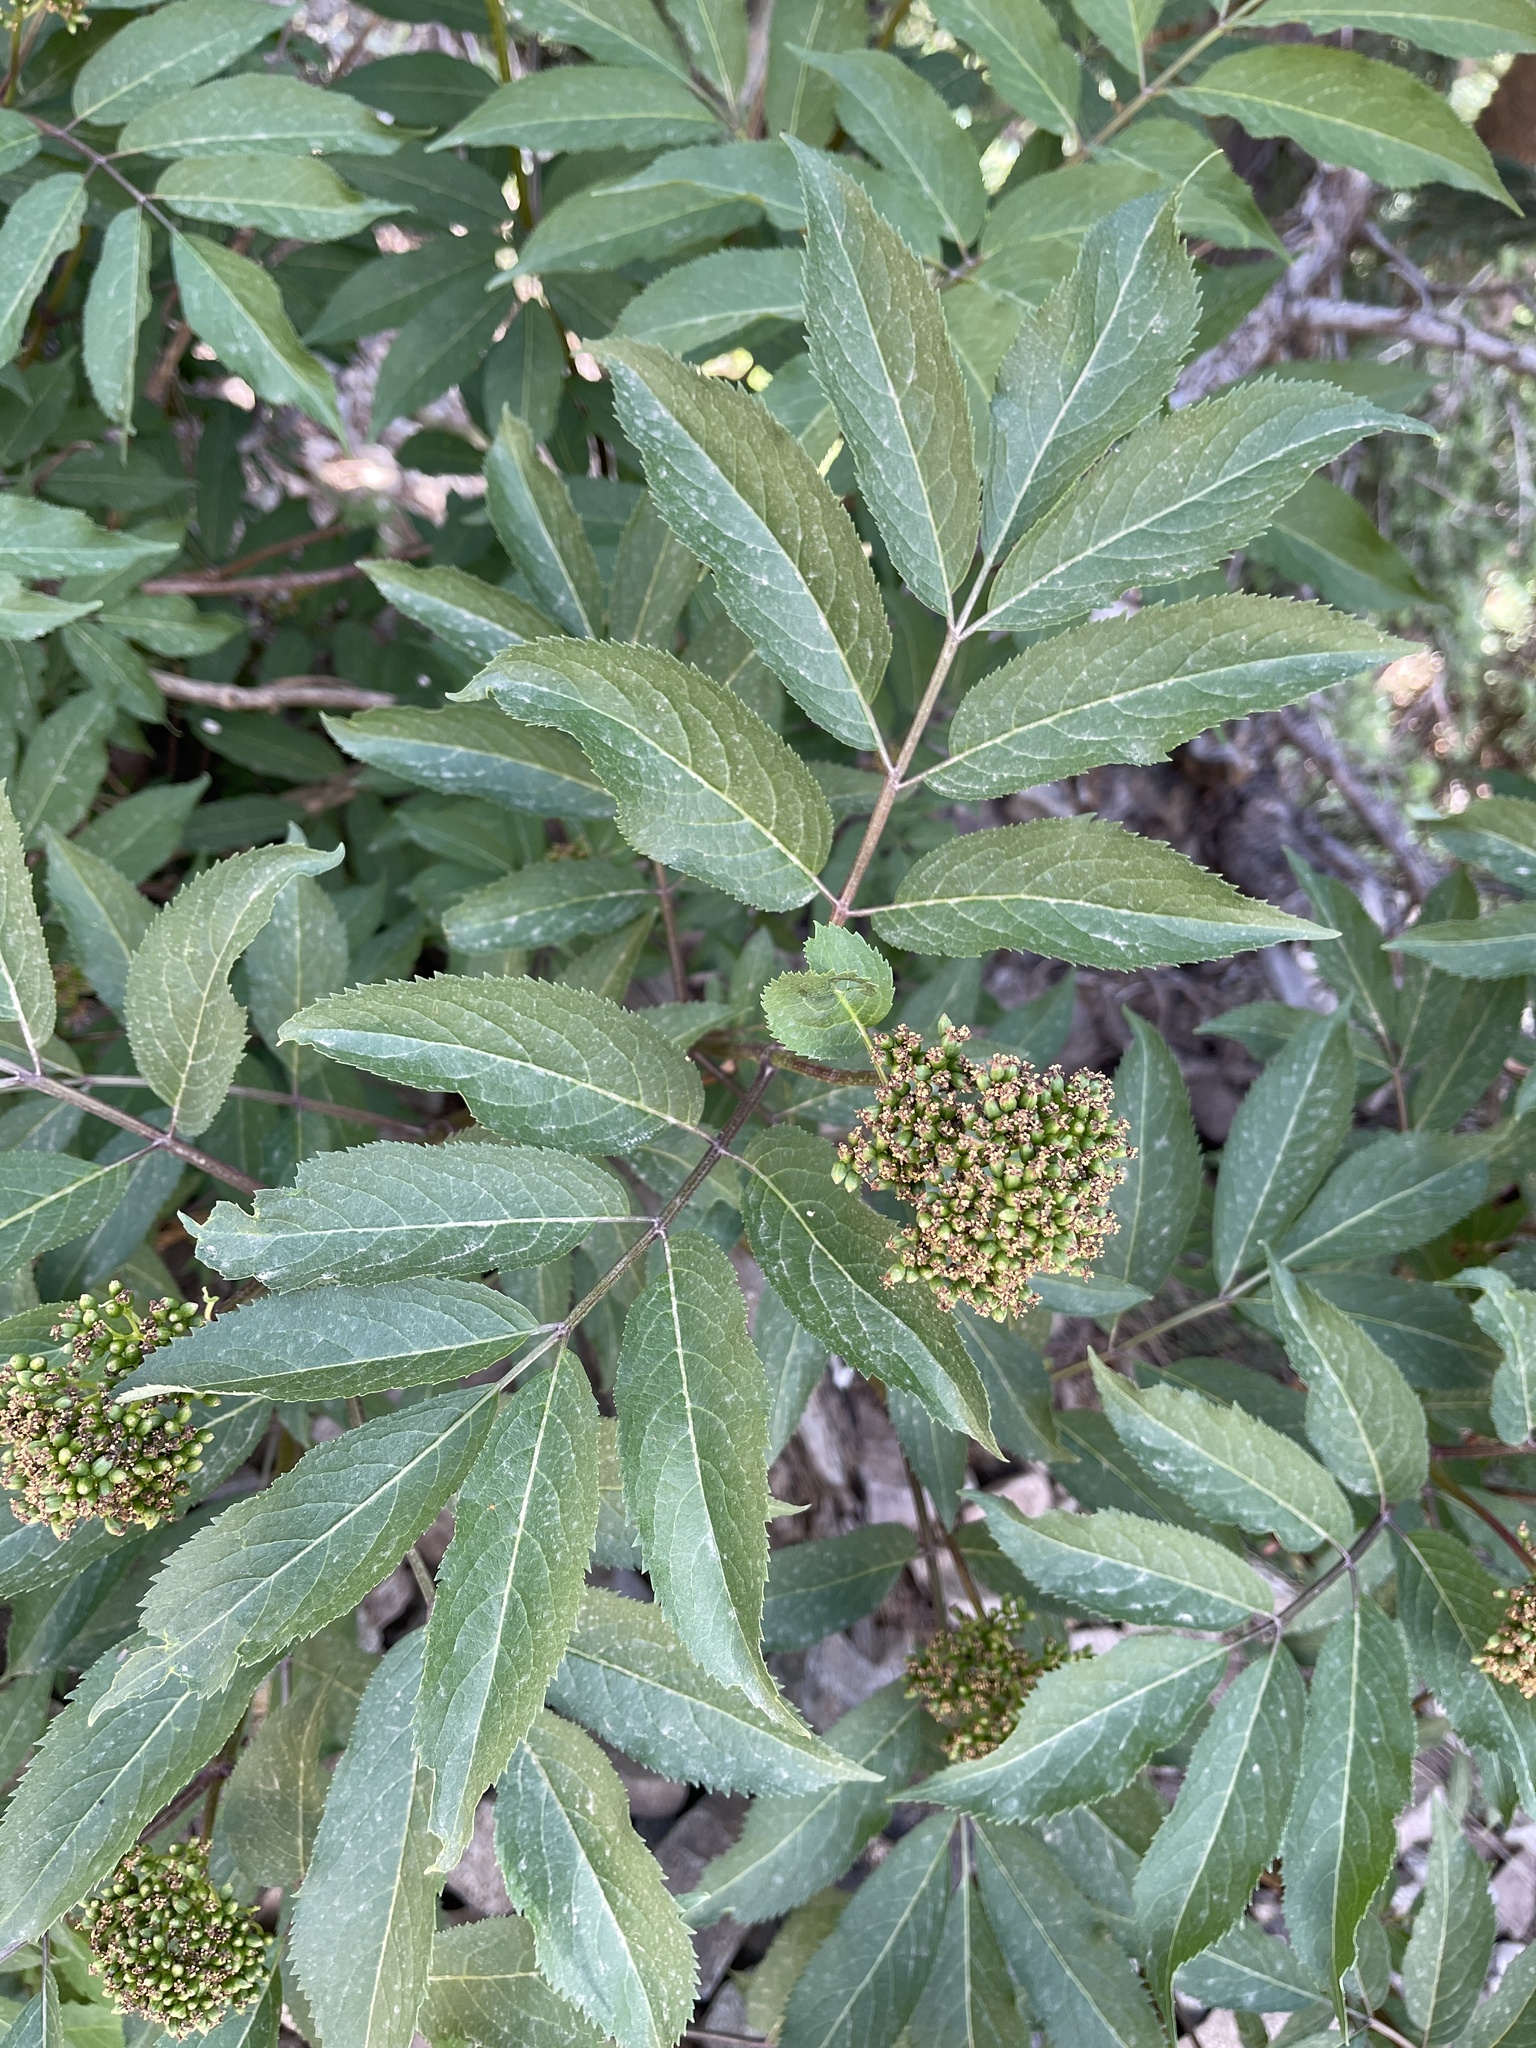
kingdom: Plantae
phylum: Tracheophyta
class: Magnoliopsida
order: Dipsacales
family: Viburnaceae
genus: Sambucus
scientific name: Sambucus racemosa
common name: Red-berried elder
